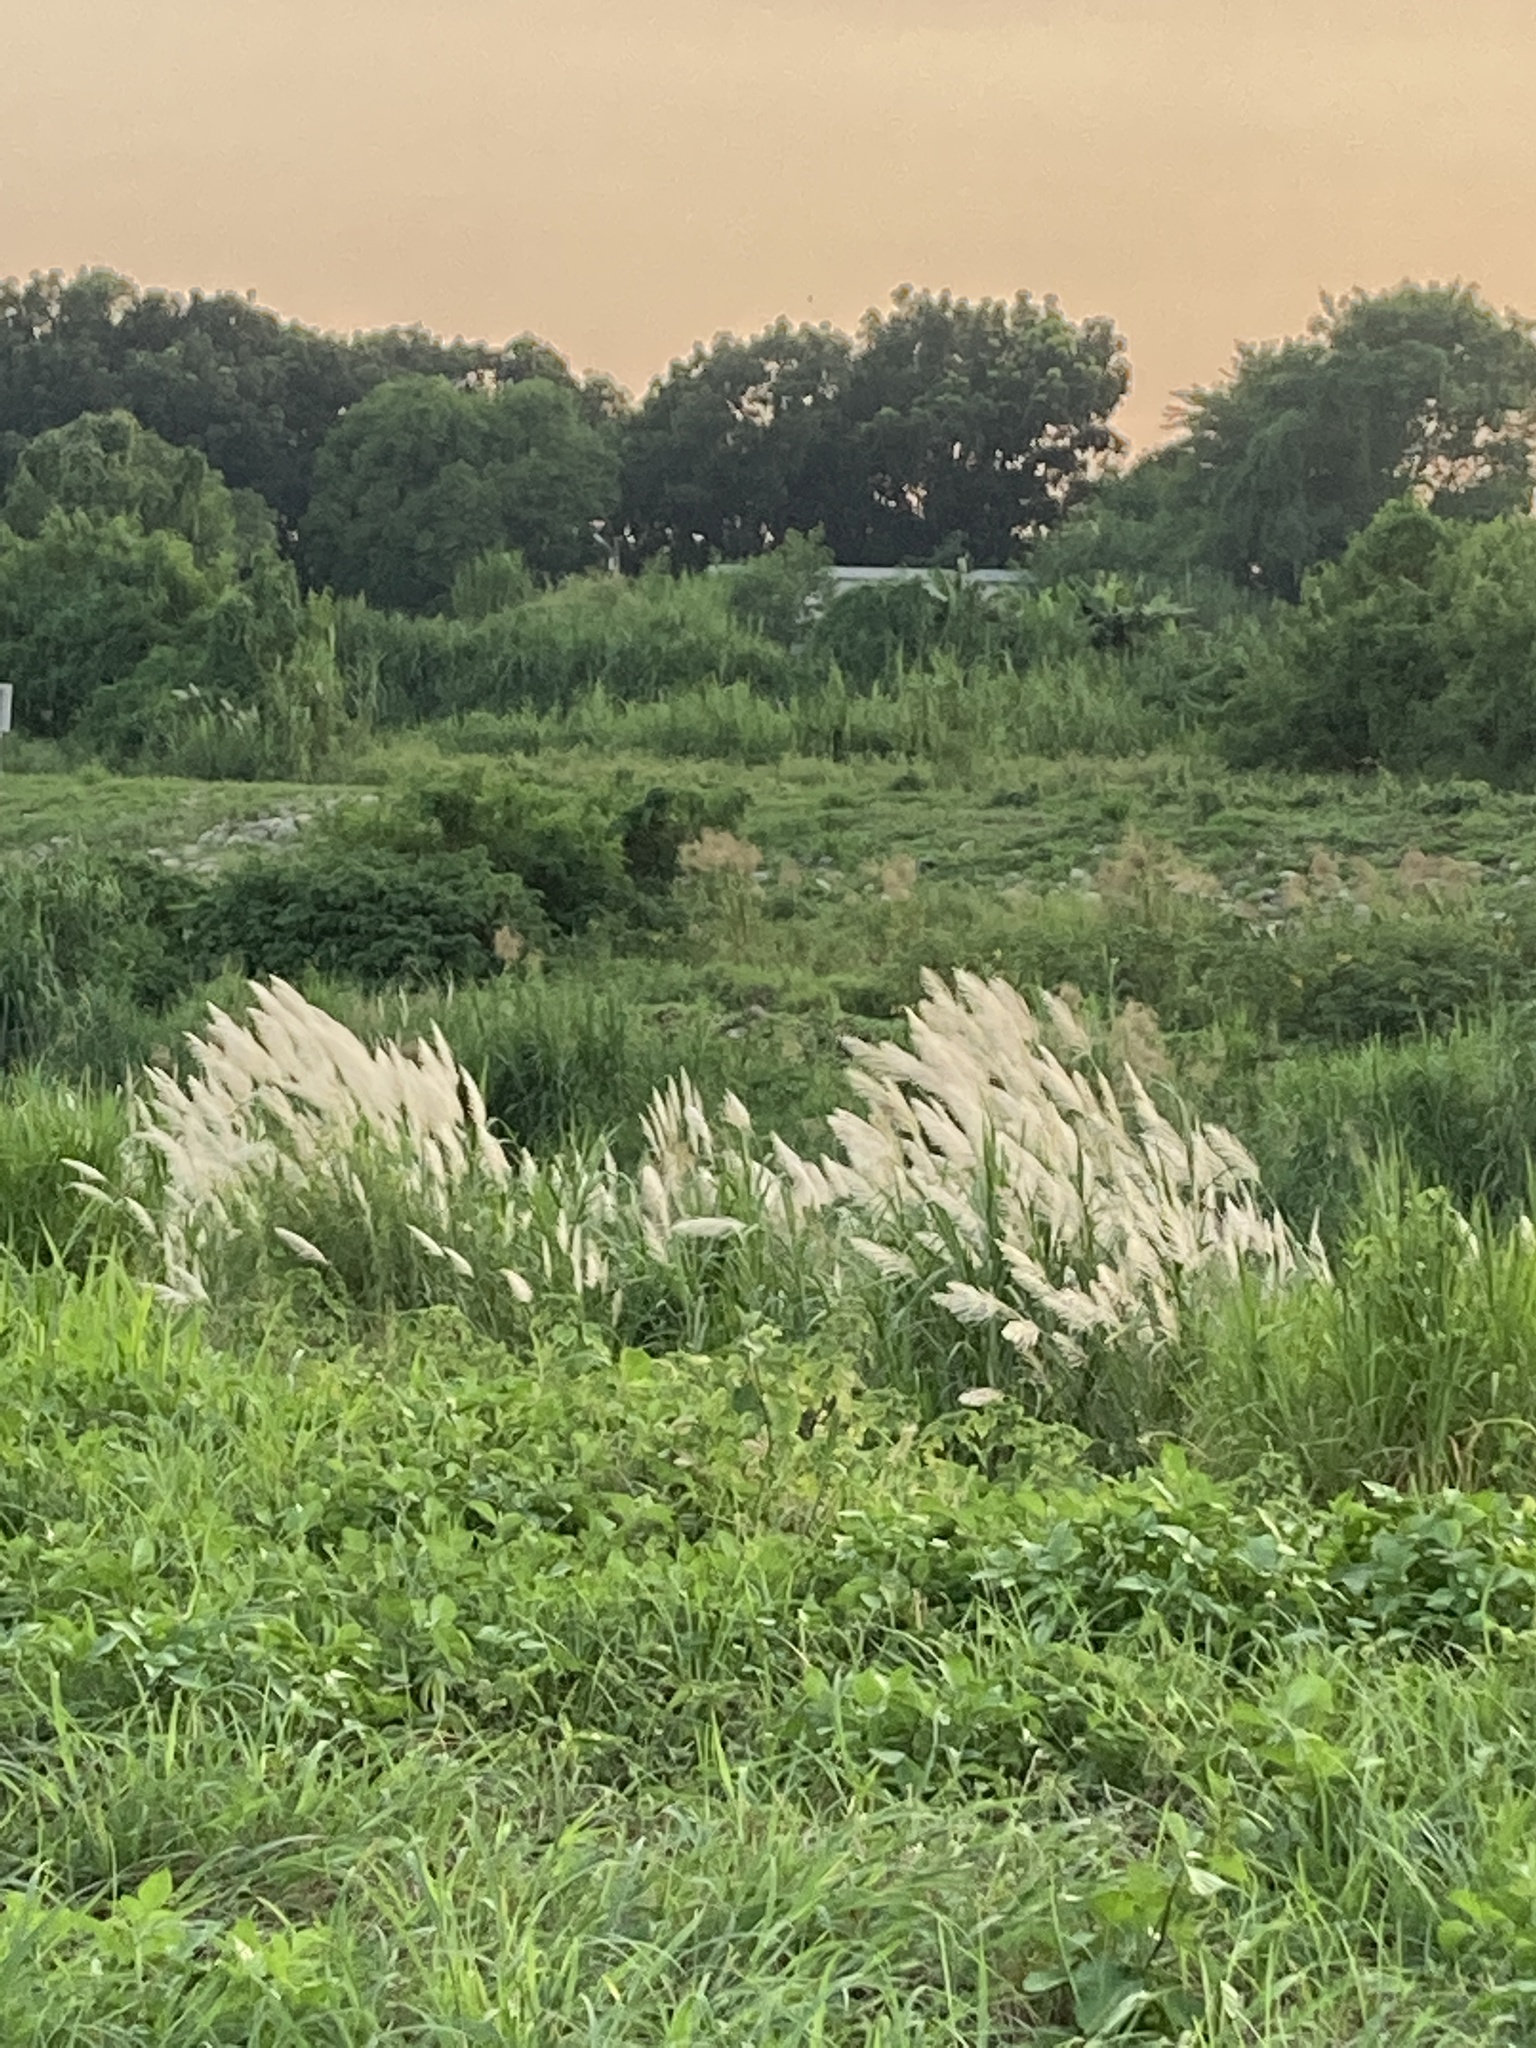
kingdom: Plantae
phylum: Tracheophyta
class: Liliopsida
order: Poales
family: Poaceae
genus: Saccharum
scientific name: Saccharum spontaneum
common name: Wild sugarcane
